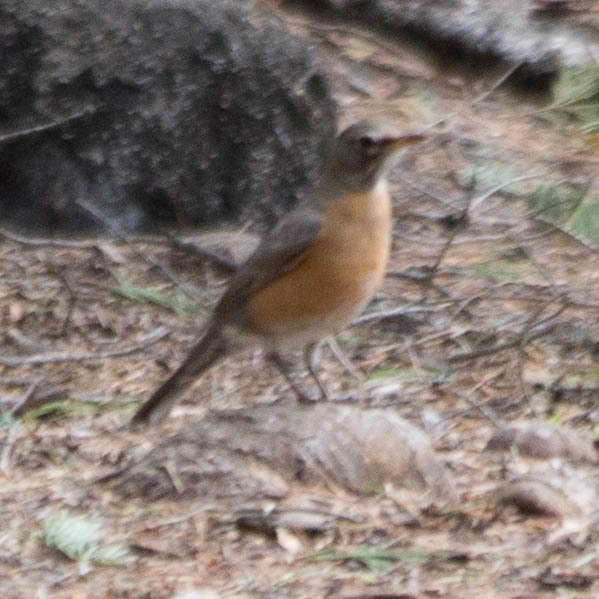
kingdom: Animalia
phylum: Chordata
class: Aves
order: Passeriformes
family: Turdidae
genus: Turdus
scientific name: Turdus migratorius
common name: American robin
